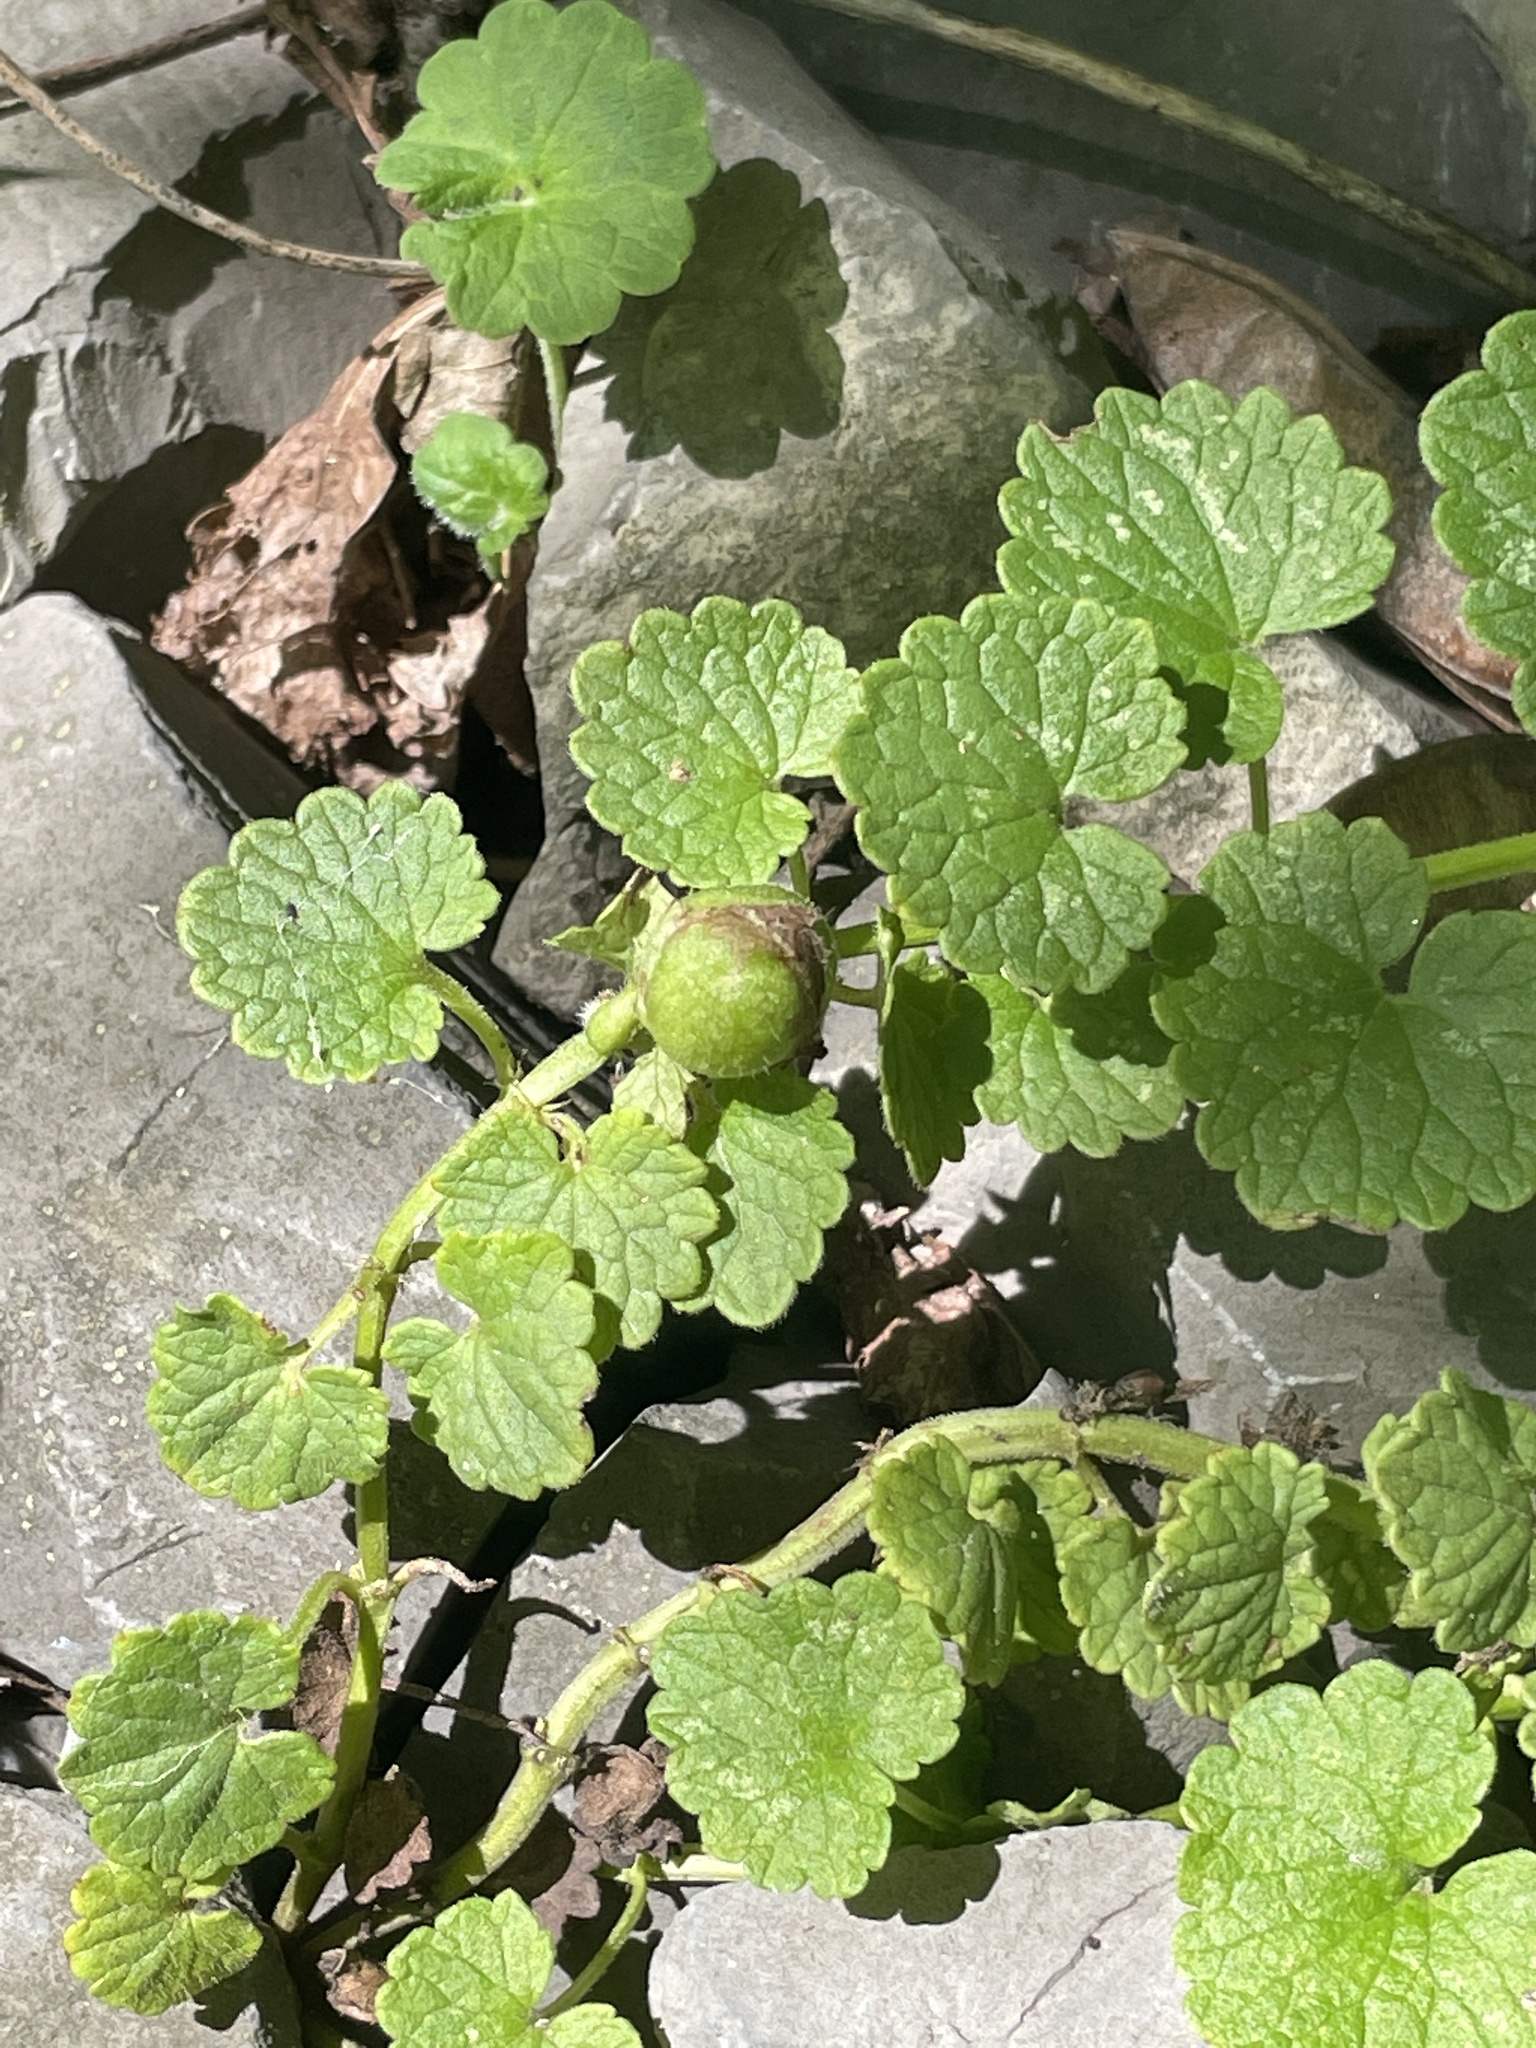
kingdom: Animalia
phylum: Arthropoda
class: Insecta
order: Hymenoptera
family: Cynipidae
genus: Liposthenes
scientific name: Liposthenes glechomae
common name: Gall wasp
